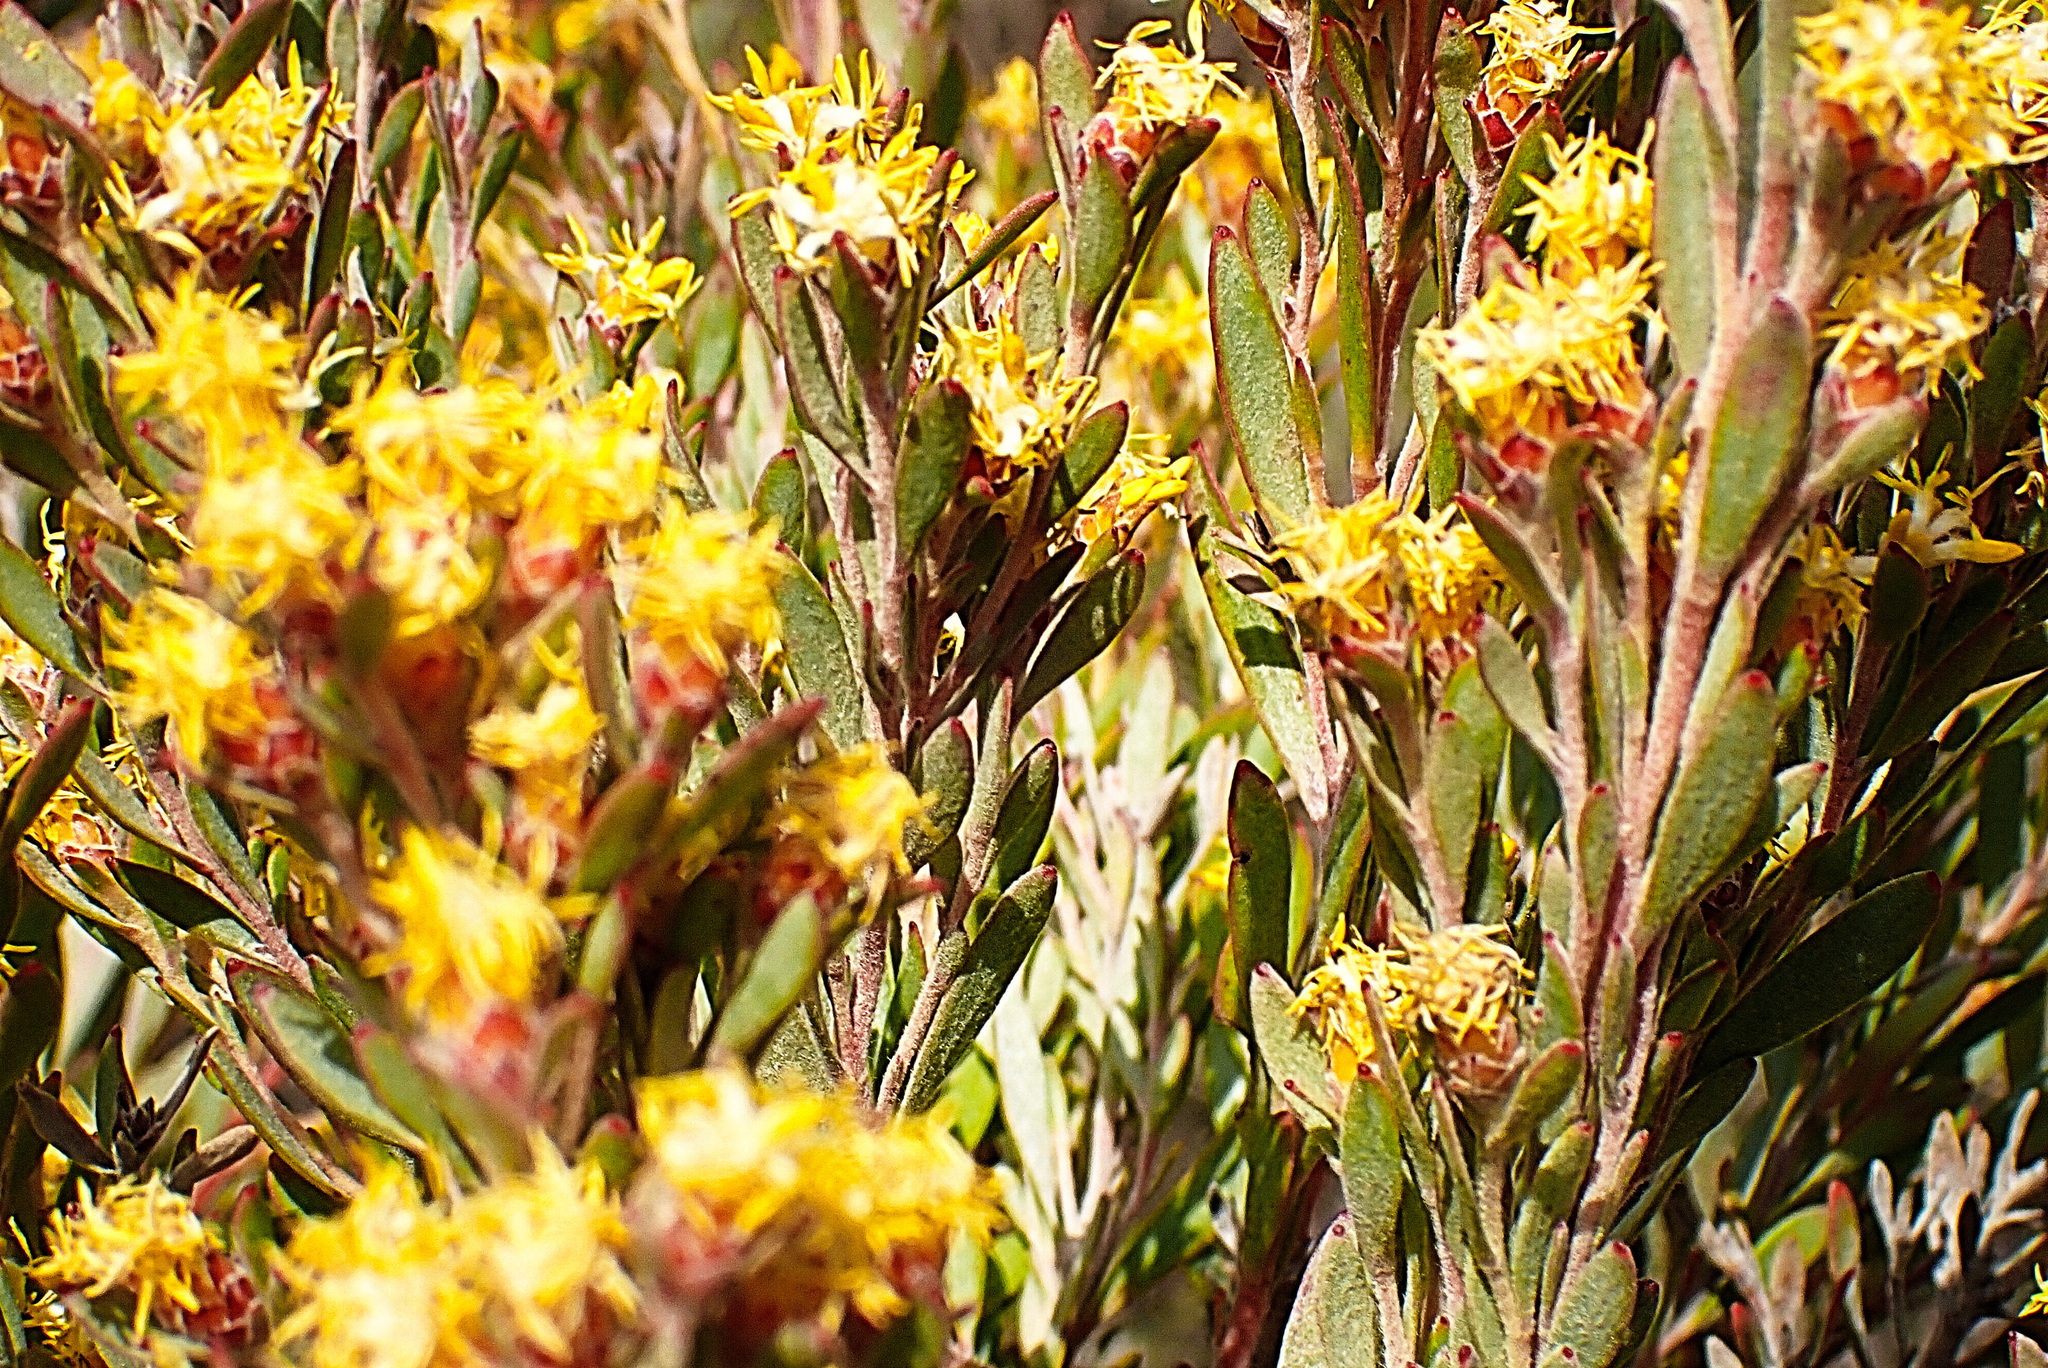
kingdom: Plantae
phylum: Tracheophyta
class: Magnoliopsida
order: Proteales
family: Proteaceae
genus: Leucadendron
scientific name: Leucadendron rubrum
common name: Spinning top
